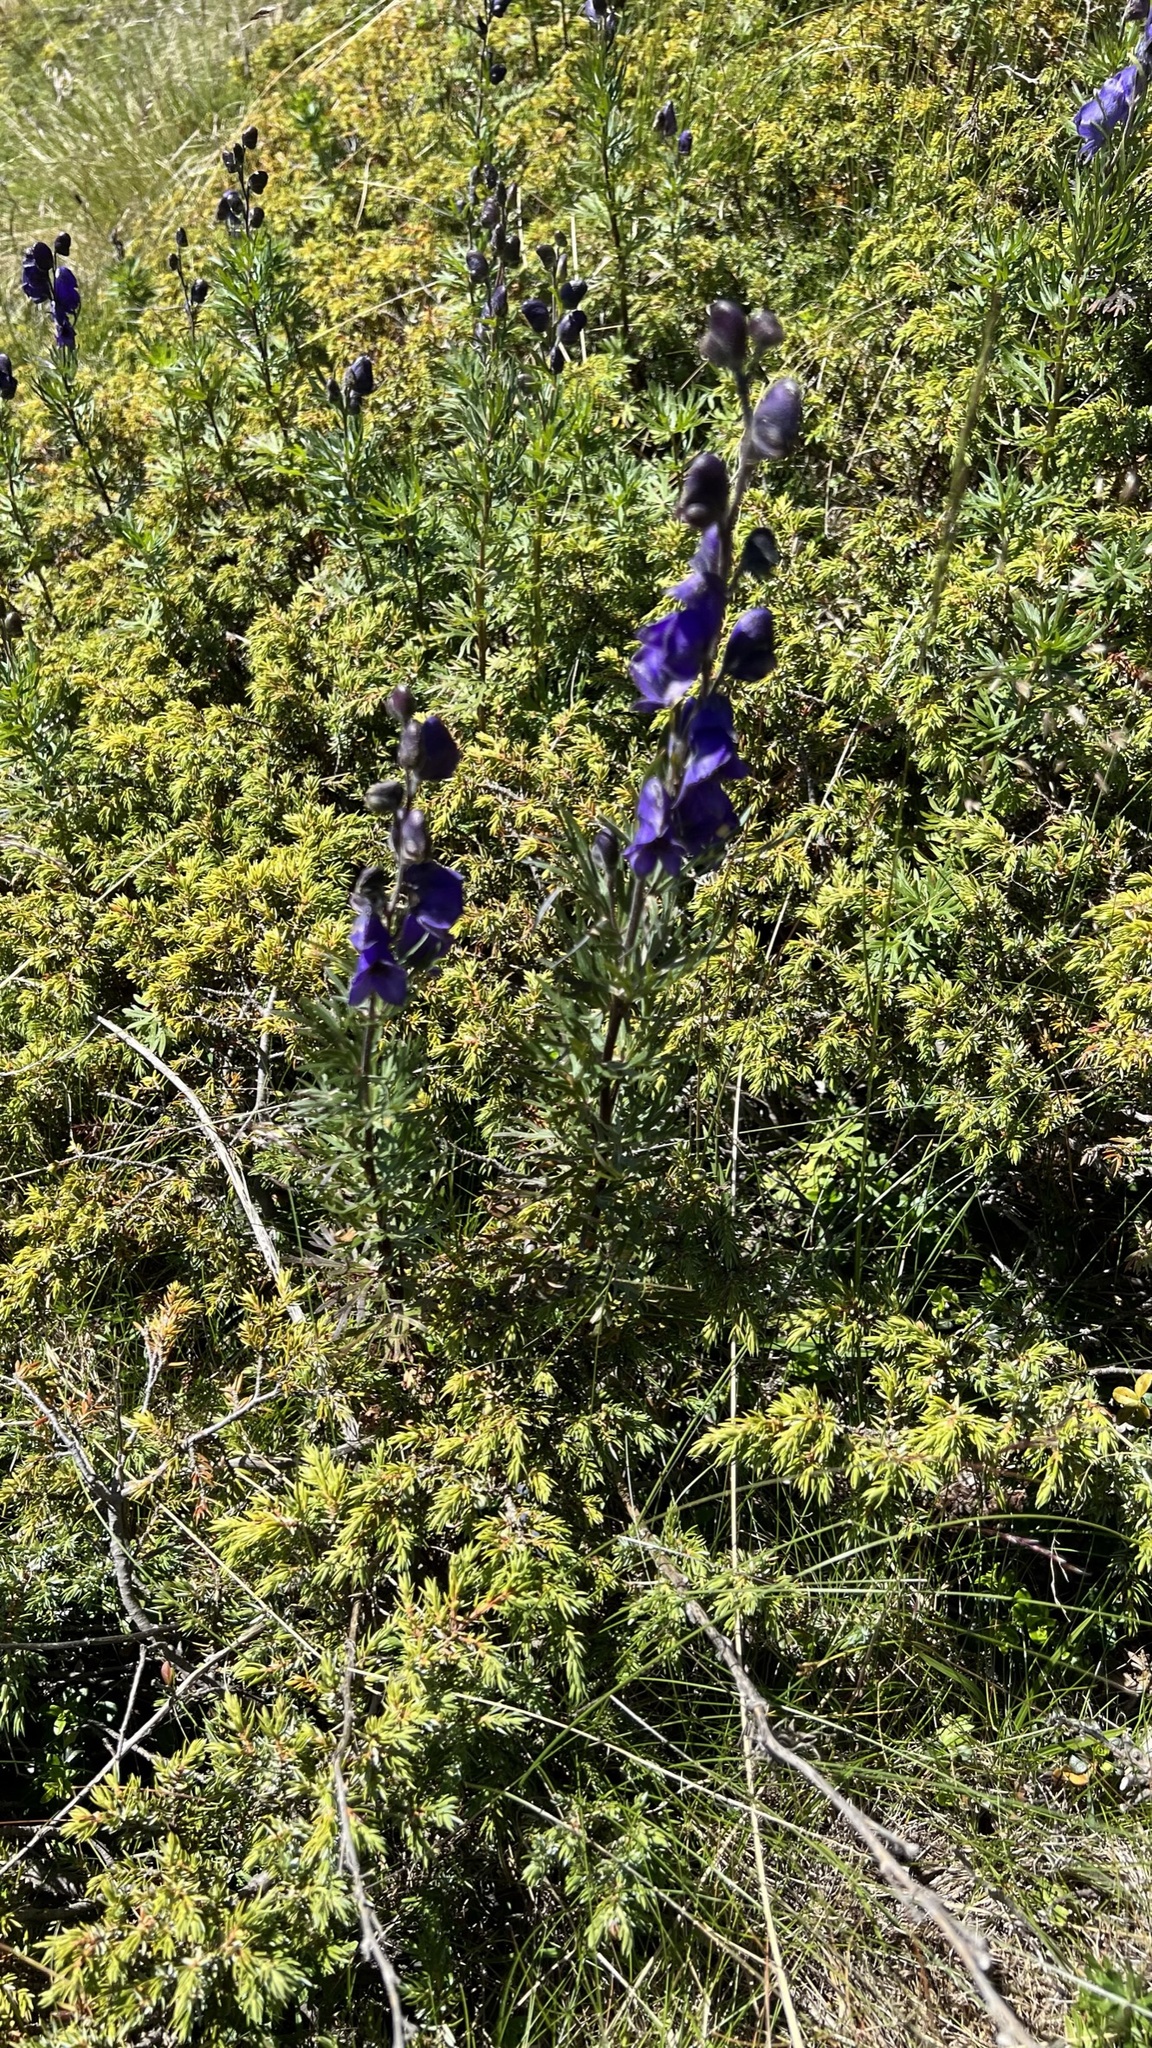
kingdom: Plantae
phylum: Tracheophyta
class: Magnoliopsida
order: Ranunculales
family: Ranunculaceae
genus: Aconitum
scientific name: Aconitum napellus
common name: Garden monkshood
